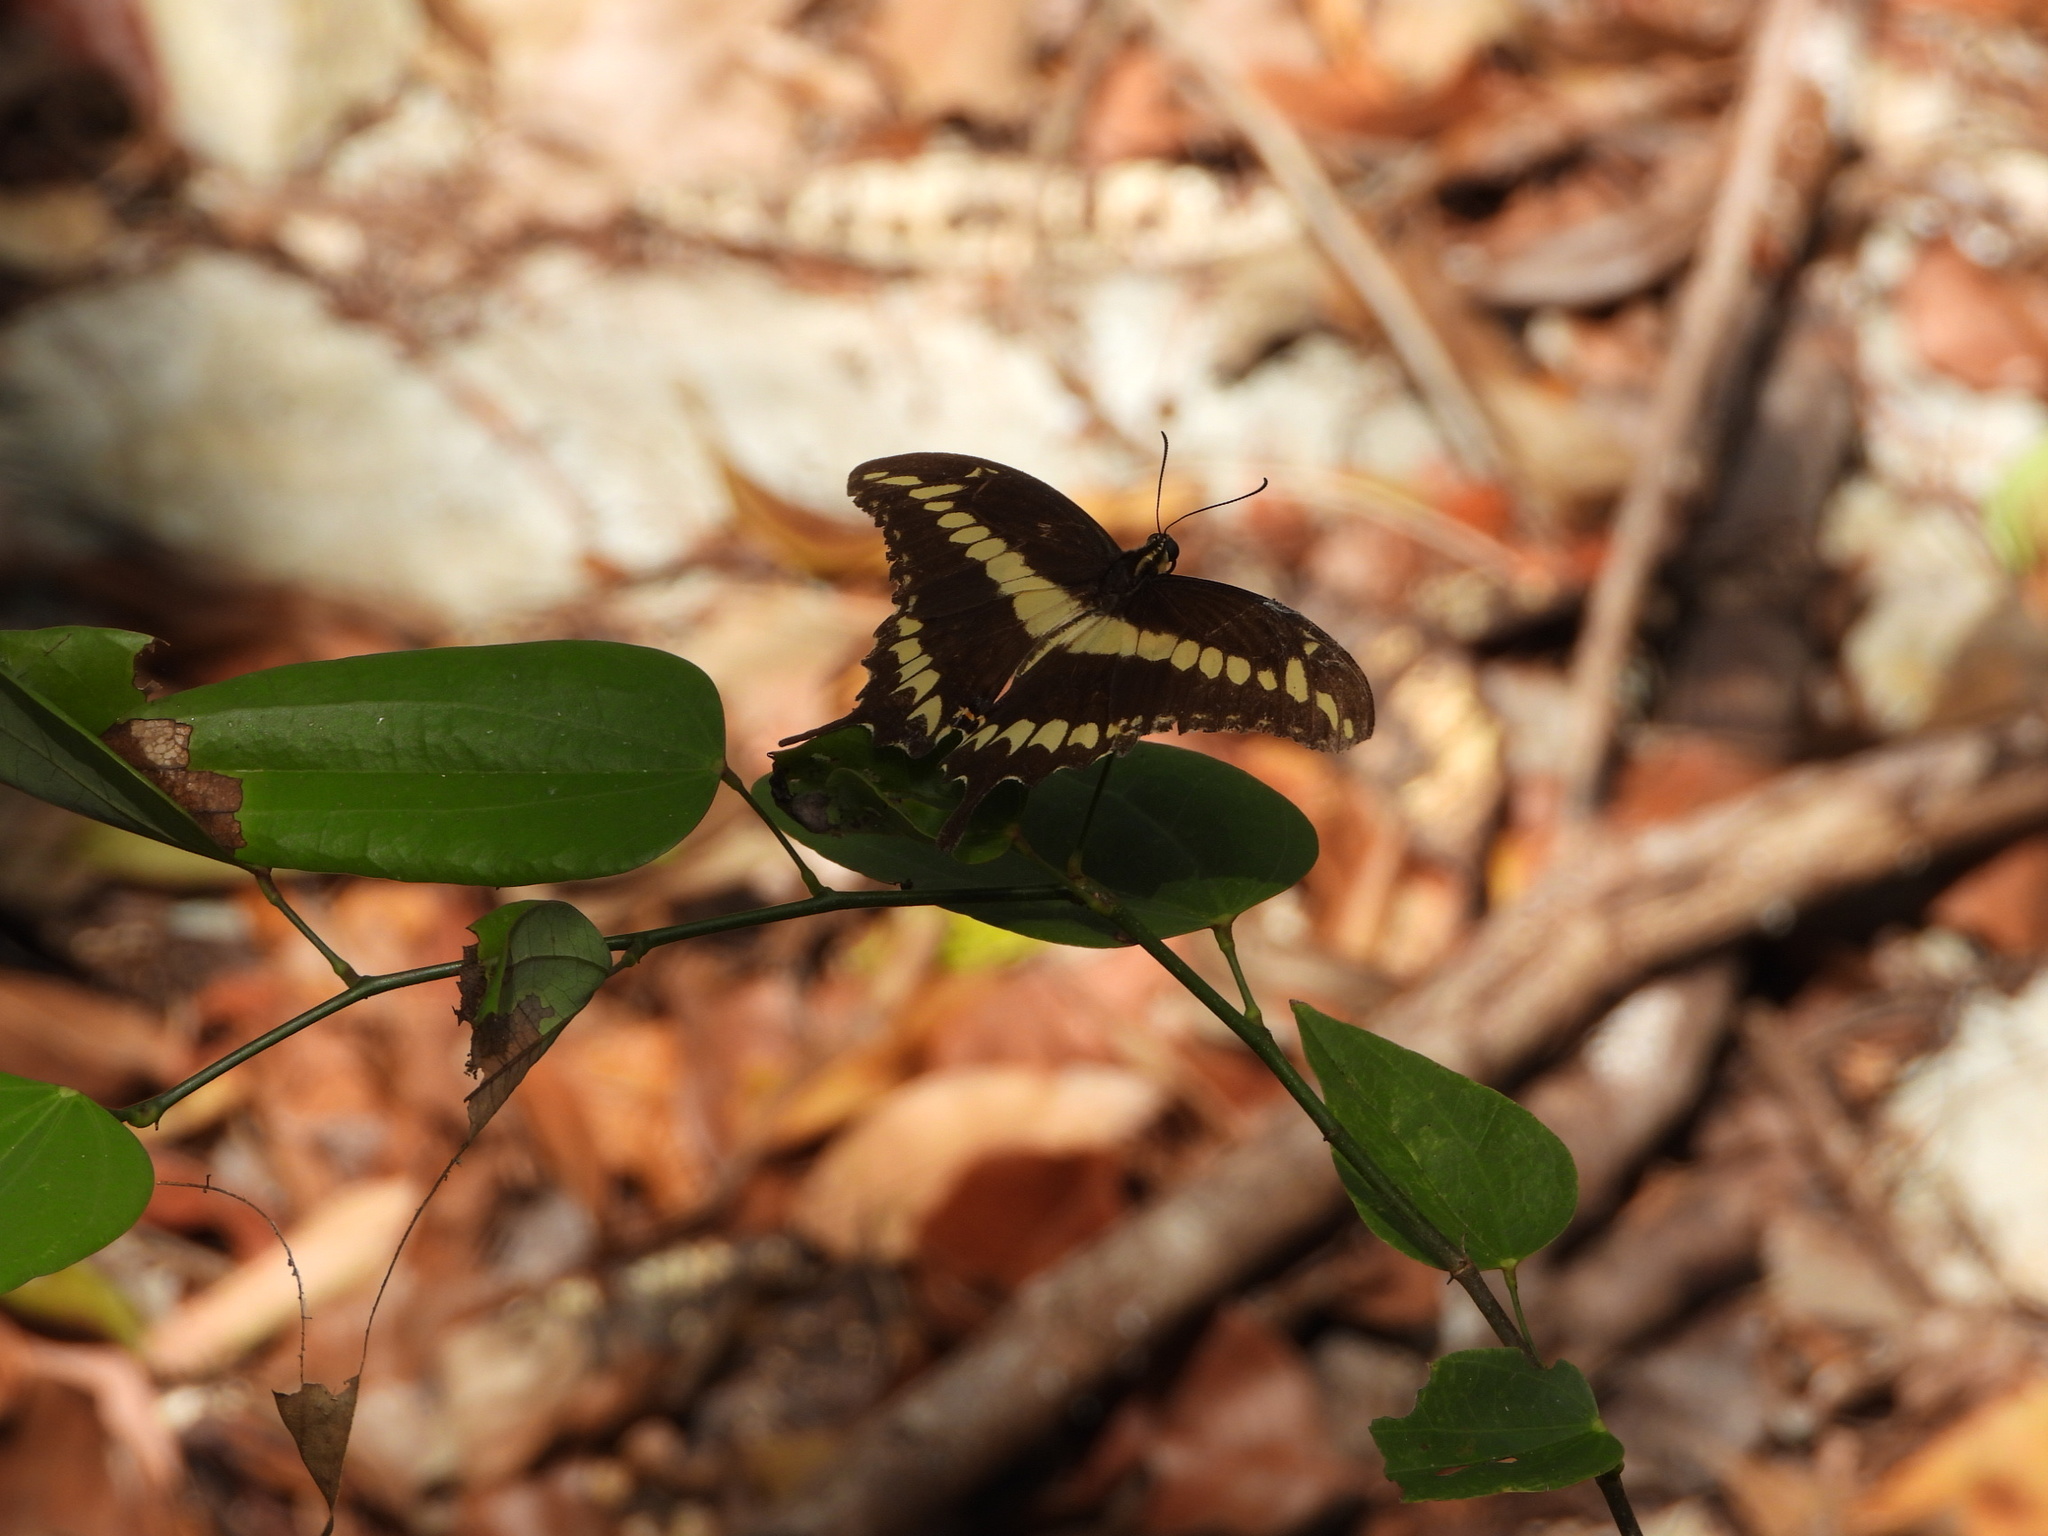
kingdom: Animalia
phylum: Arthropoda
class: Insecta
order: Lepidoptera
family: Papilionidae
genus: Papilio
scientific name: Papilio ornythion
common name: Ornythion swallowtail
